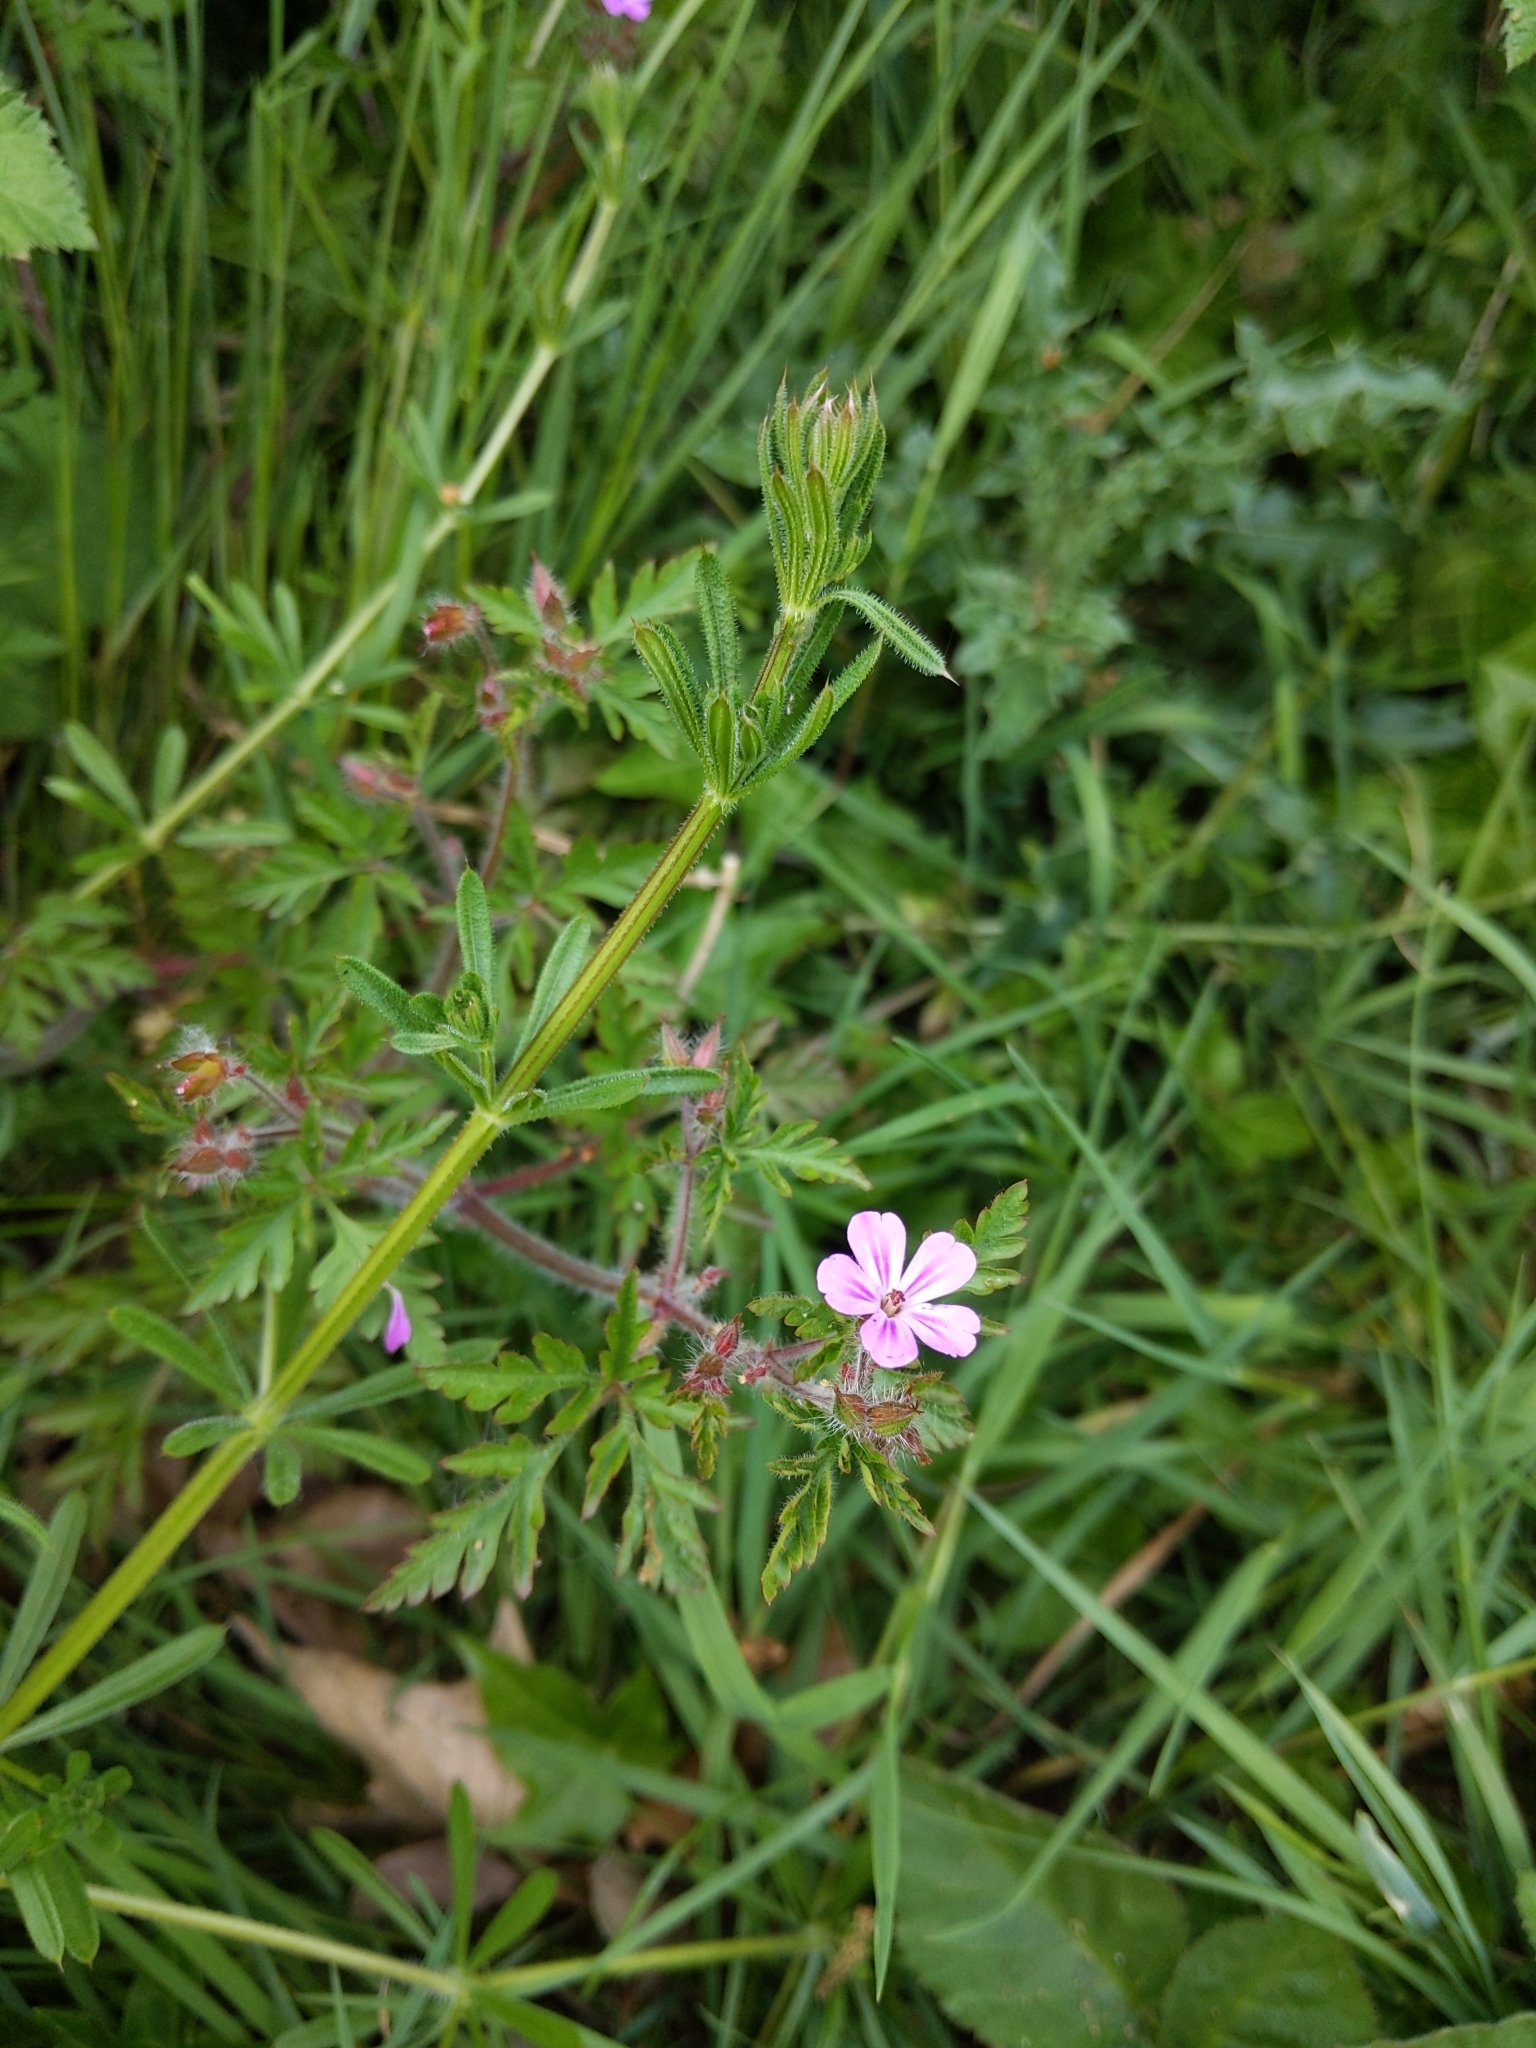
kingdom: Plantae
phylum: Tracheophyta
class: Magnoliopsida
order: Geraniales
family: Geraniaceae
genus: Geranium
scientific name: Geranium robertianum
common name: Herb-robert
